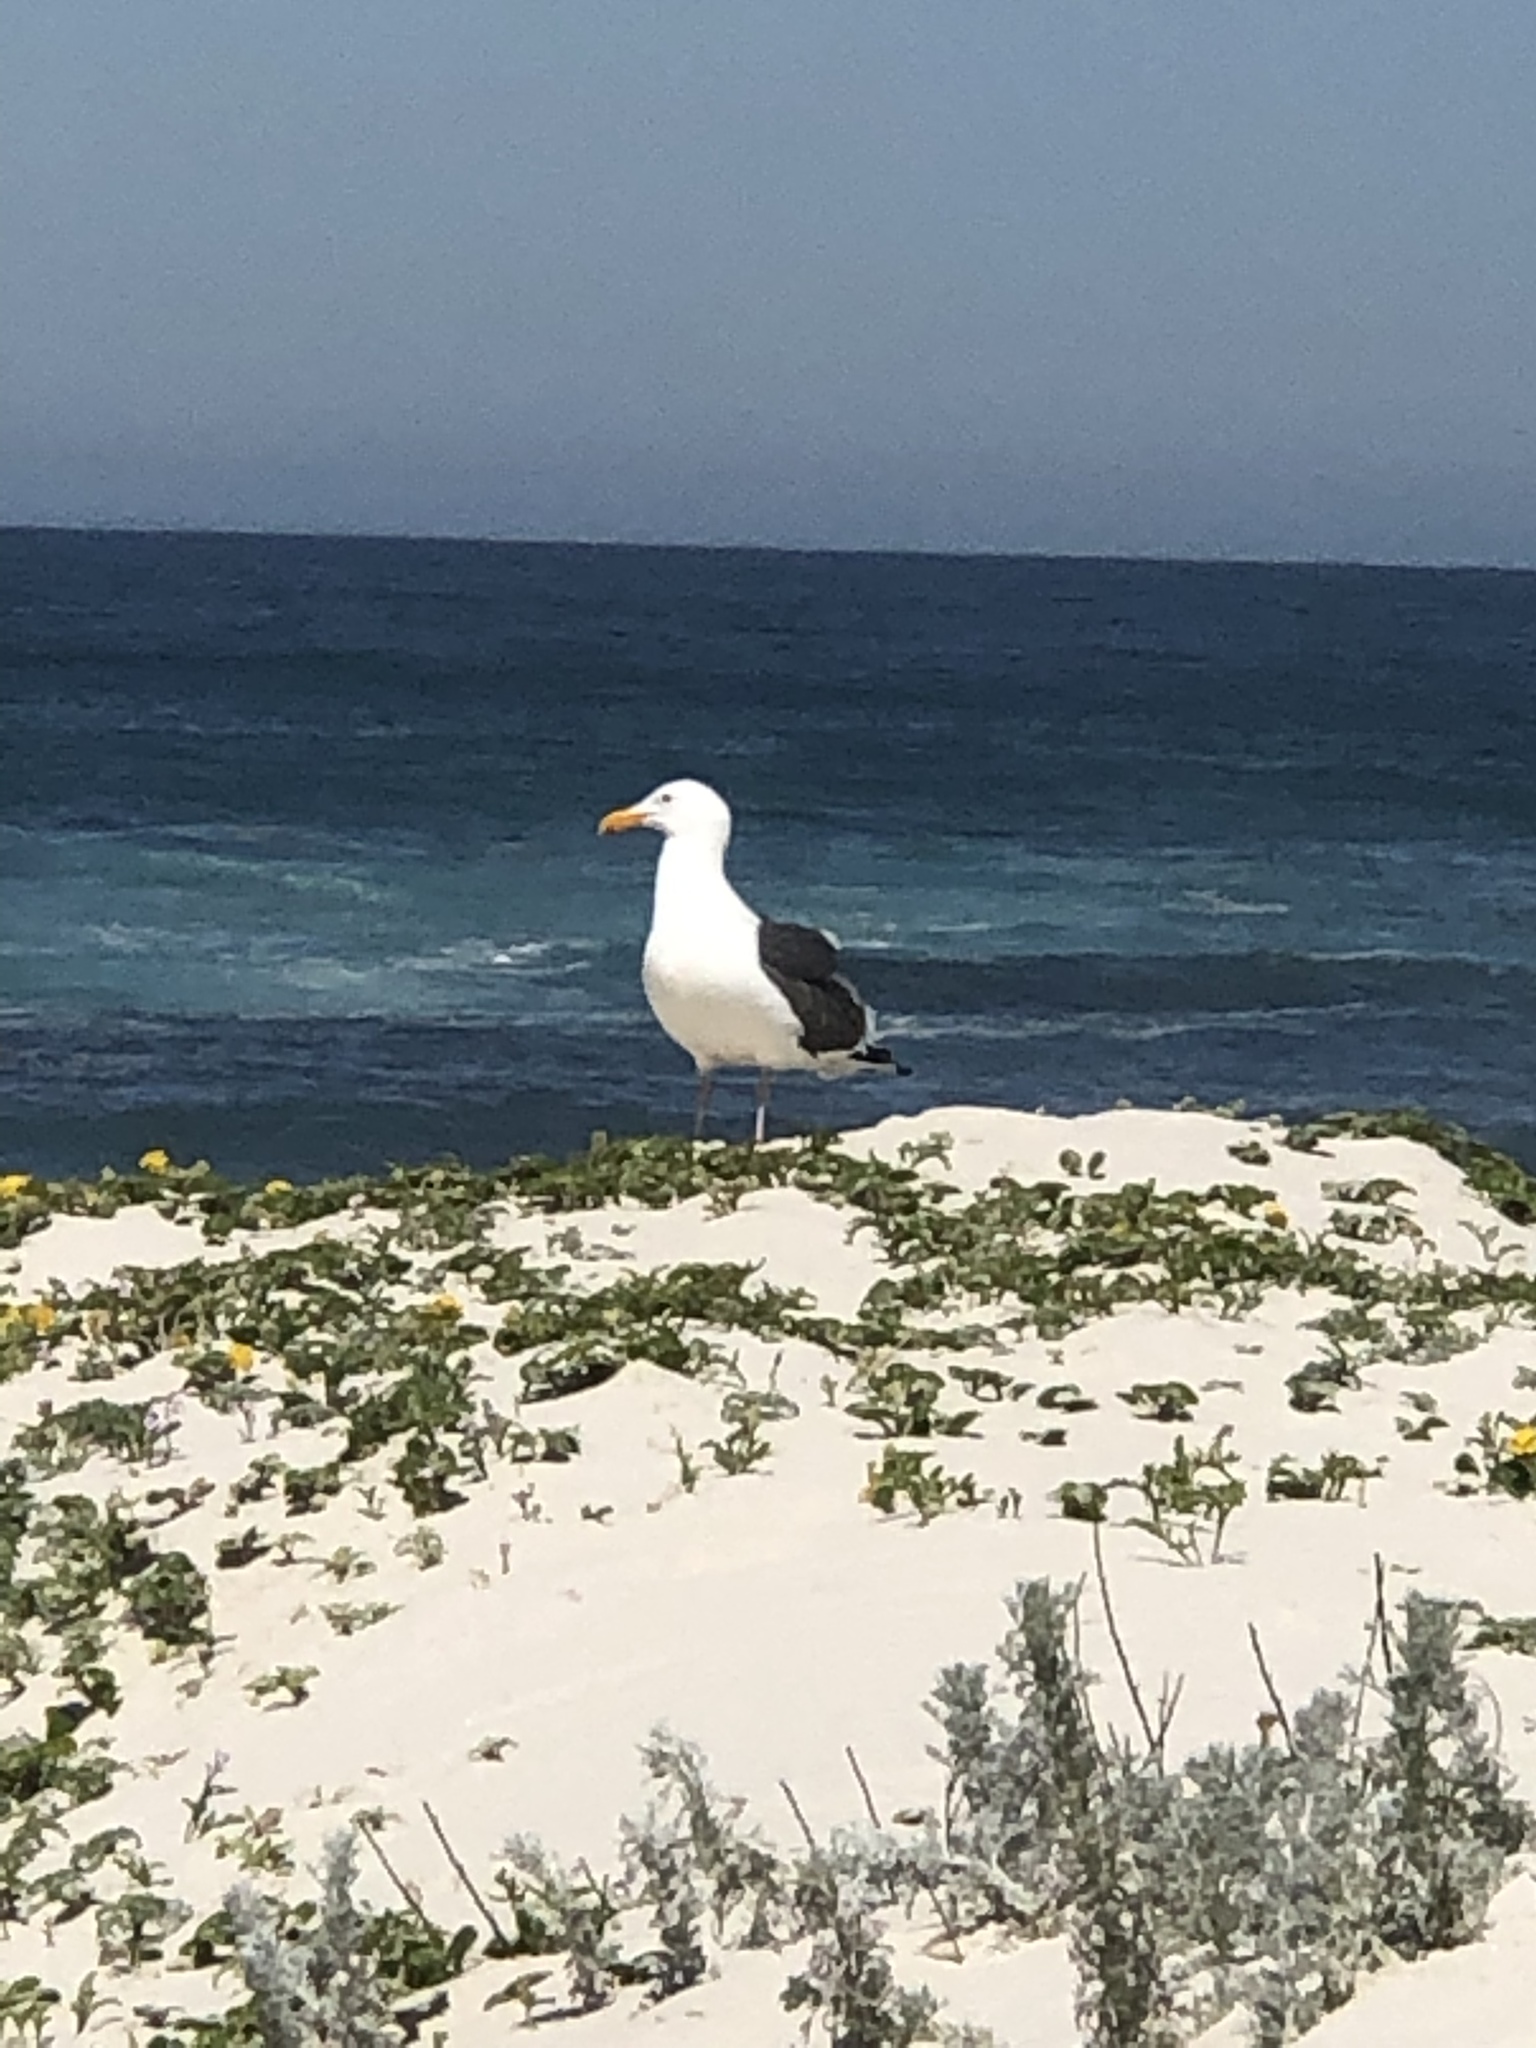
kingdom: Animalia
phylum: Chordata
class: Aves
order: Charadriiformes
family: Laridae
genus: Larus
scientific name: Larus occidentalis
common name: Western gull
